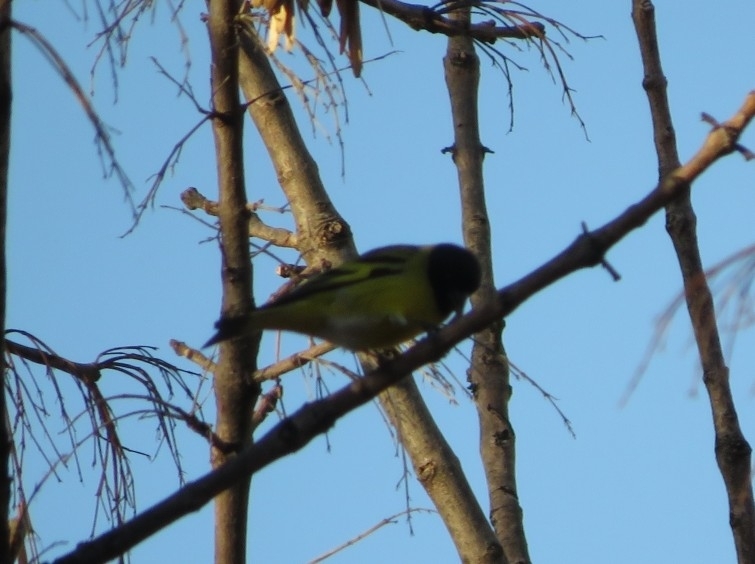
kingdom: Animalia
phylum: Chordata
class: Aves
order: Passeriformes
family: Fringillidae
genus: Spinus
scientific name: Spinus magellanicus
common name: Hooded siskin
